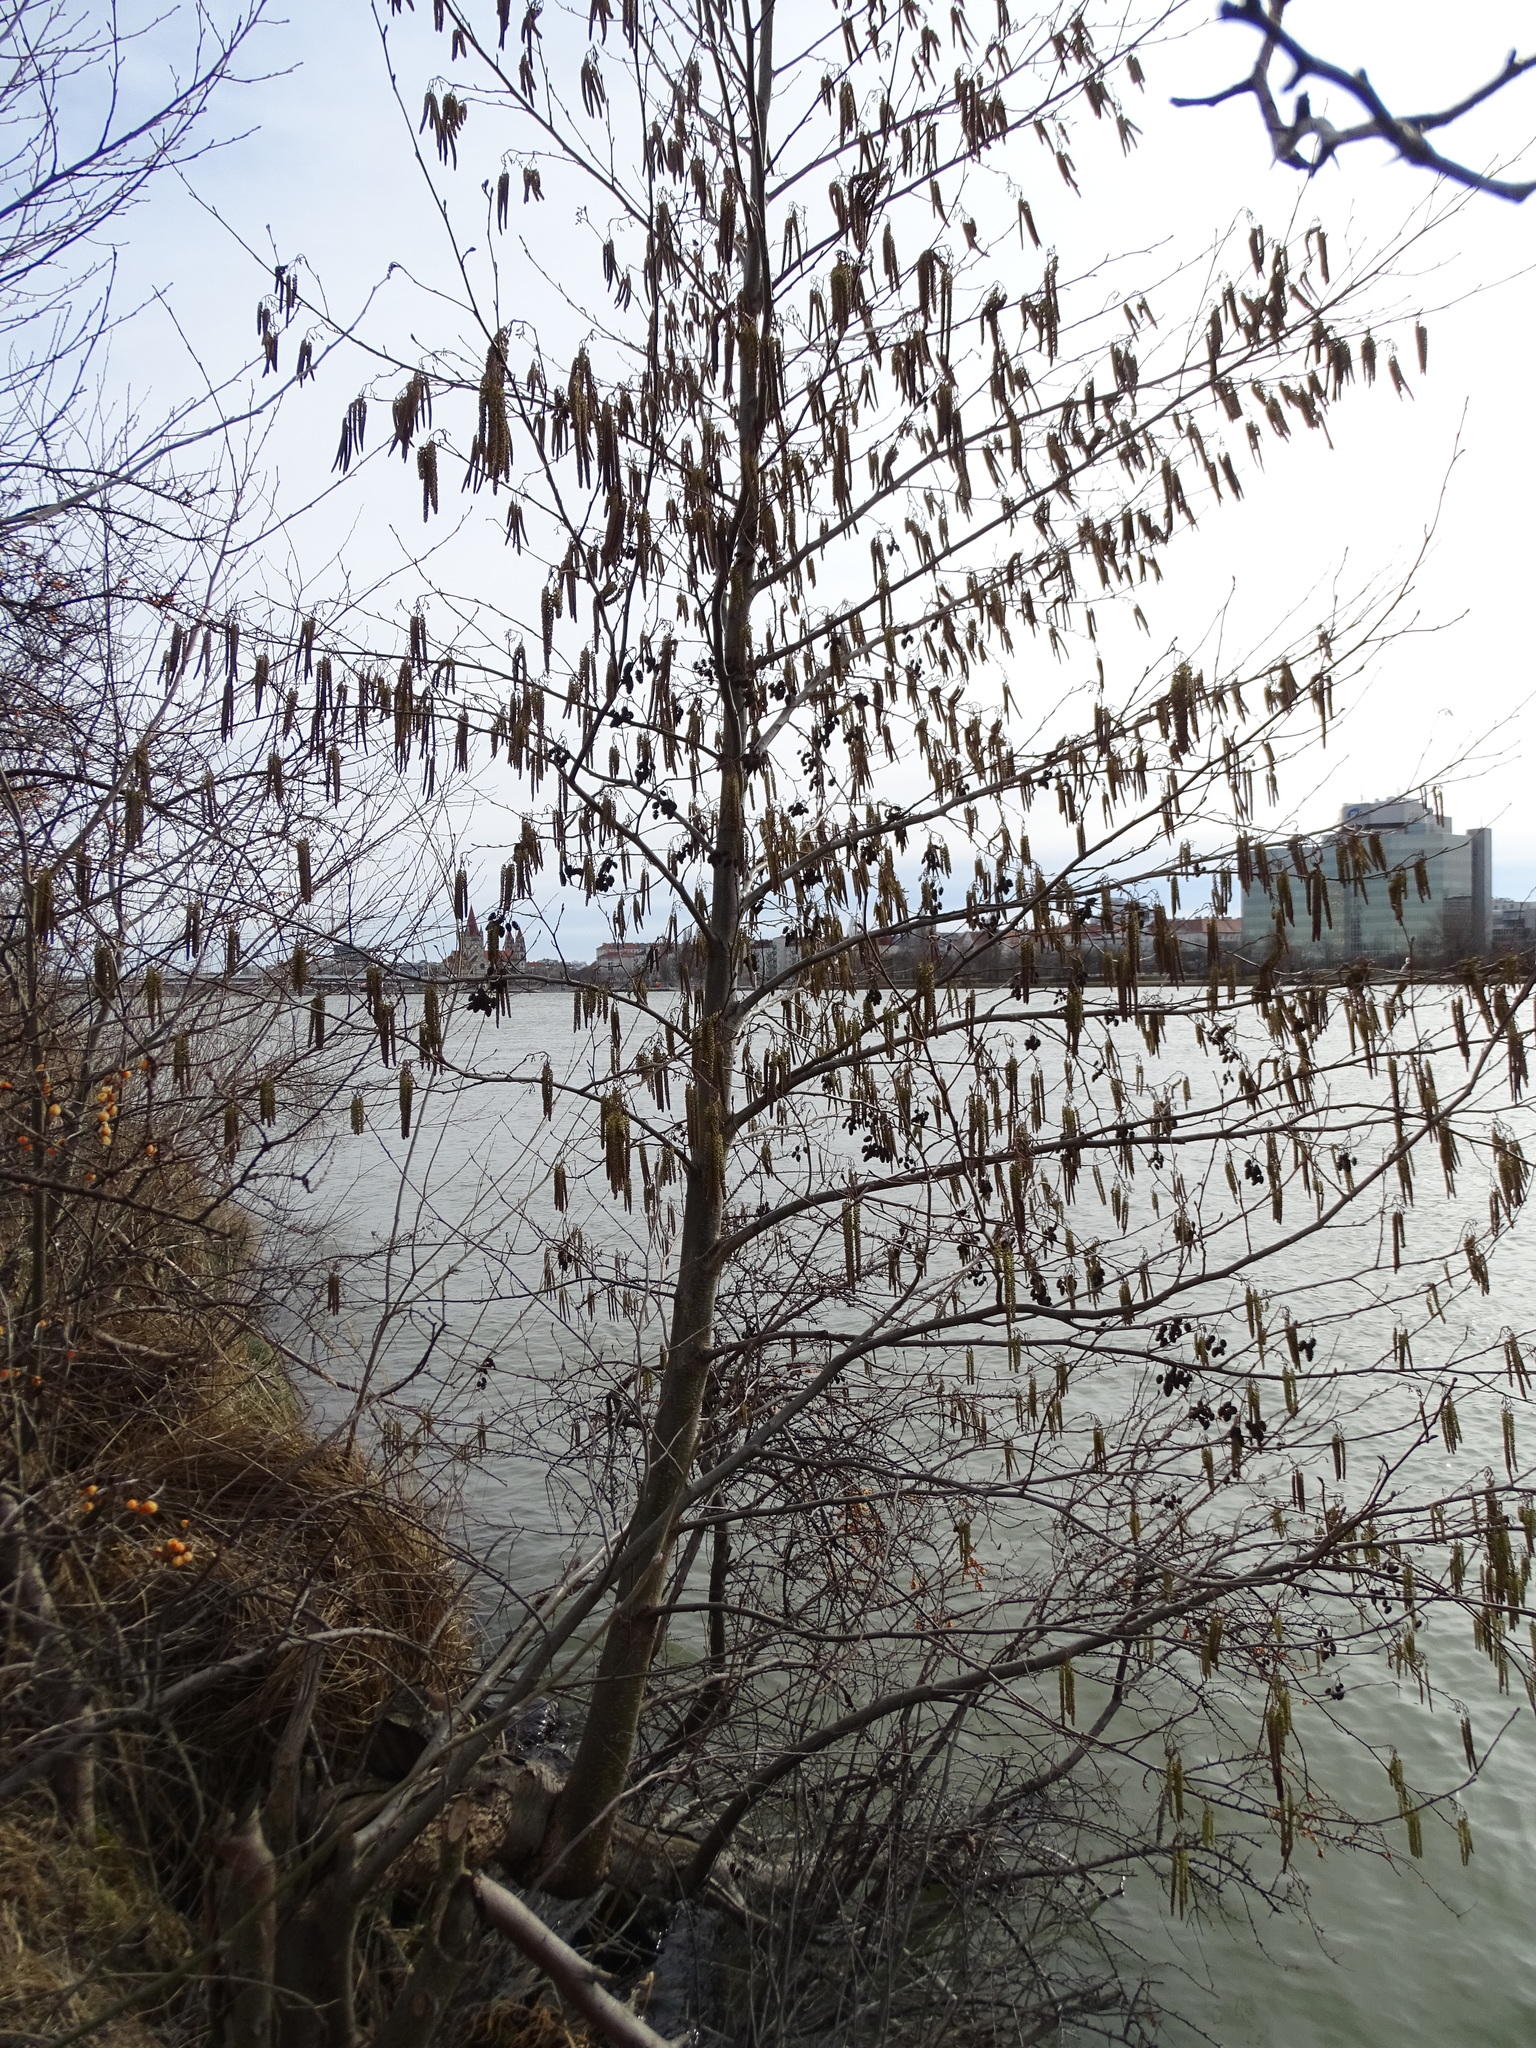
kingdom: Plantae
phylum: Tracheophyta
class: Magnoliopsida
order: Fagales
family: Betulaceae
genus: Alnus
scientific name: Alnus glutinosa
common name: Black alder
